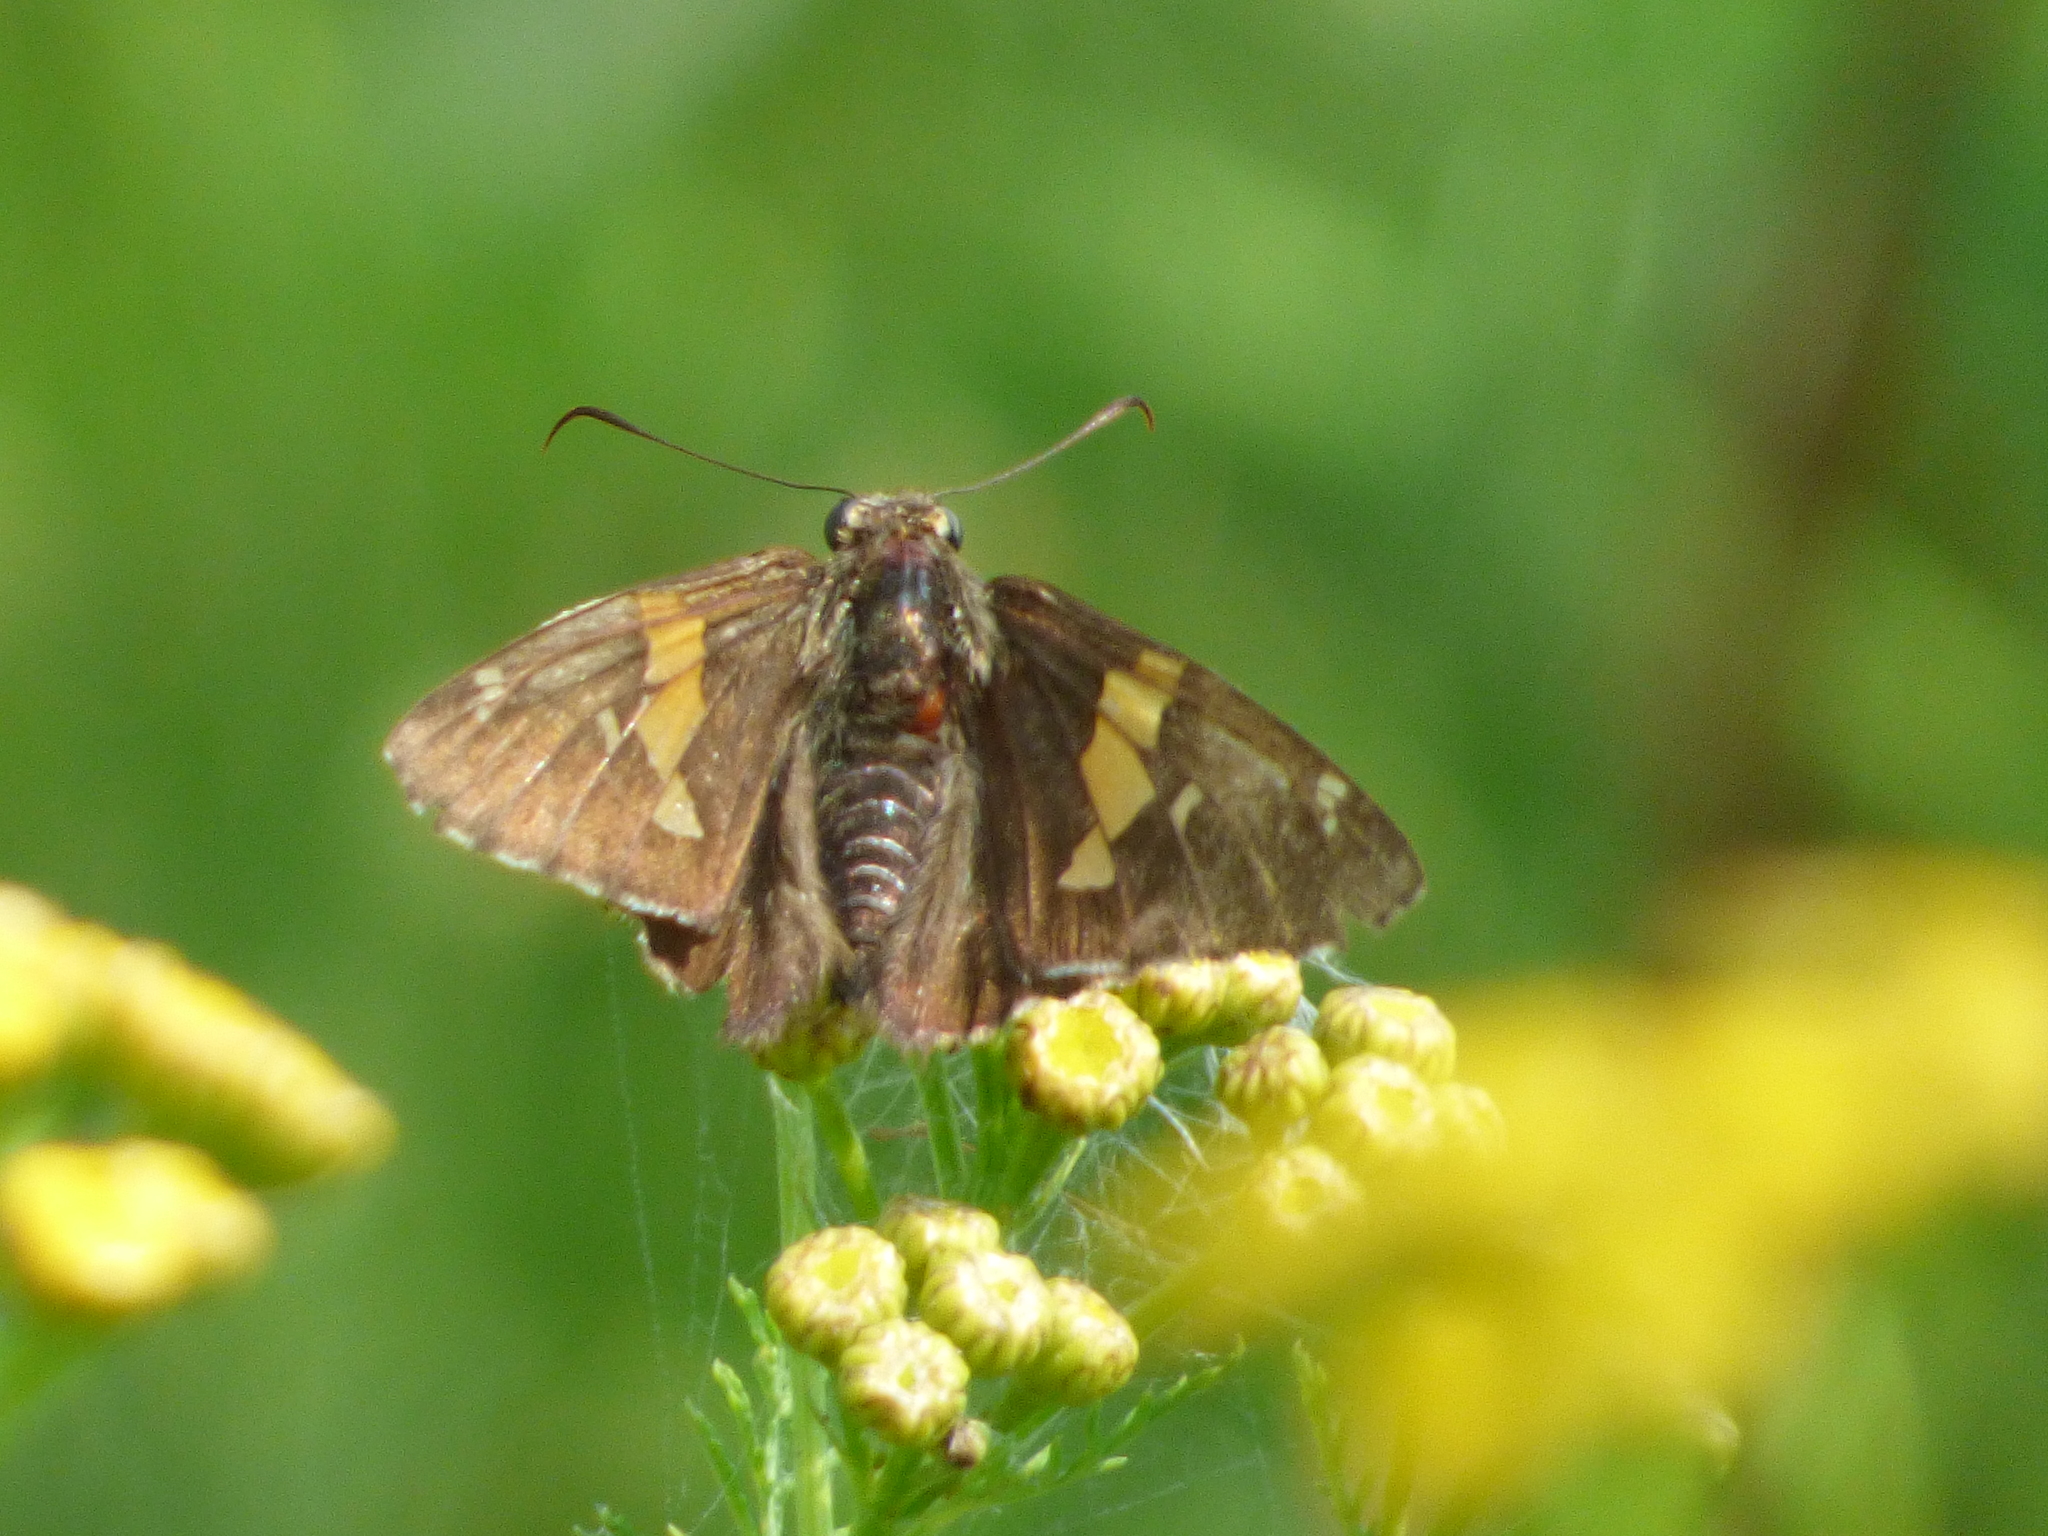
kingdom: Animalia
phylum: Arthropoda
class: Insecta
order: Lepidoptera
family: Hesperiidae
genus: Epargyreus
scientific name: Epargyreus clarus
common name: Silver-spotted skipper
